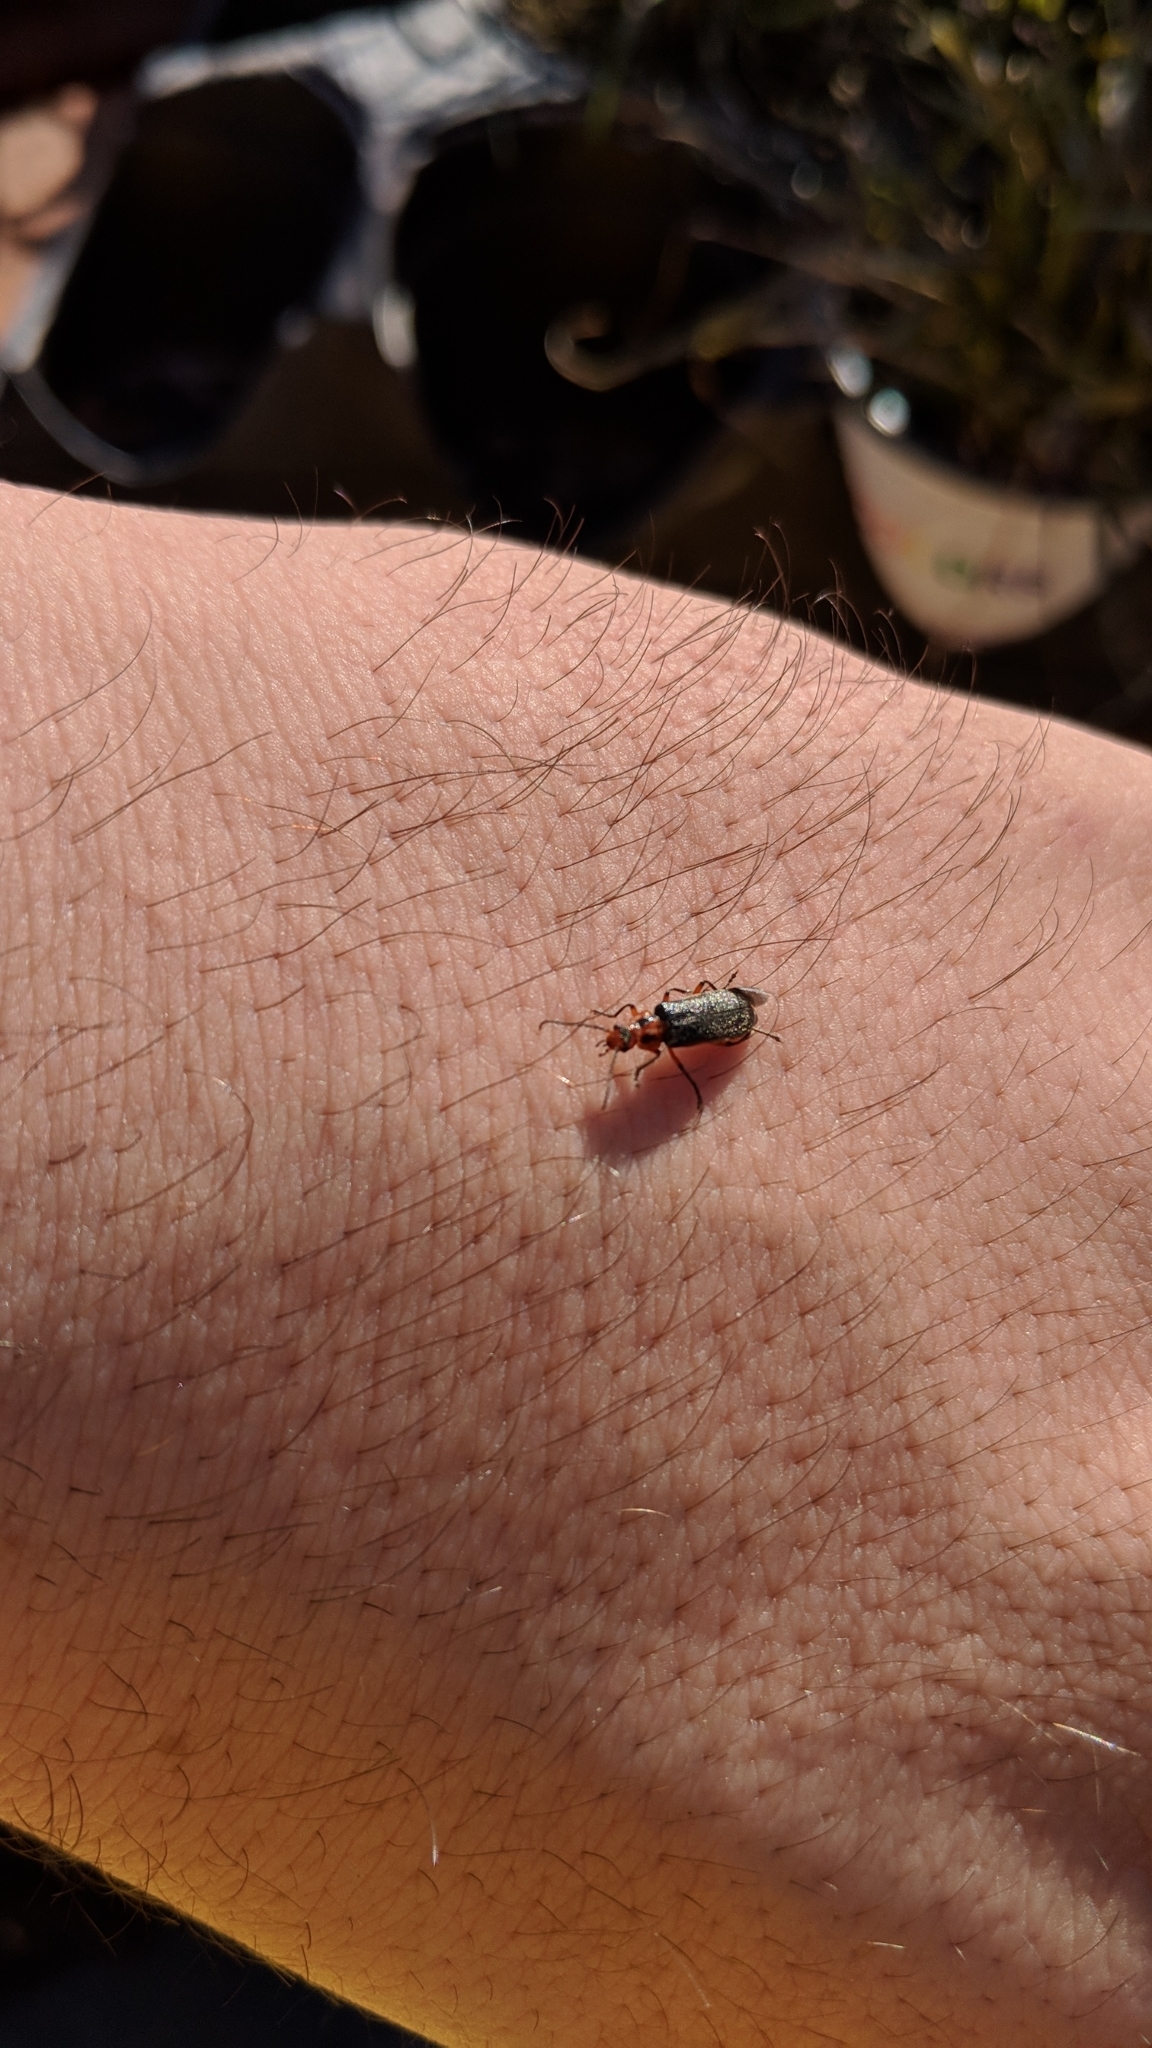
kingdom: Animalia
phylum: Arthropoda
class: Insecta
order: Coleoptera
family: Cantharidae
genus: Atalantycha
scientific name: Atalantycha bilineata
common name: Two-lined leatherwing
